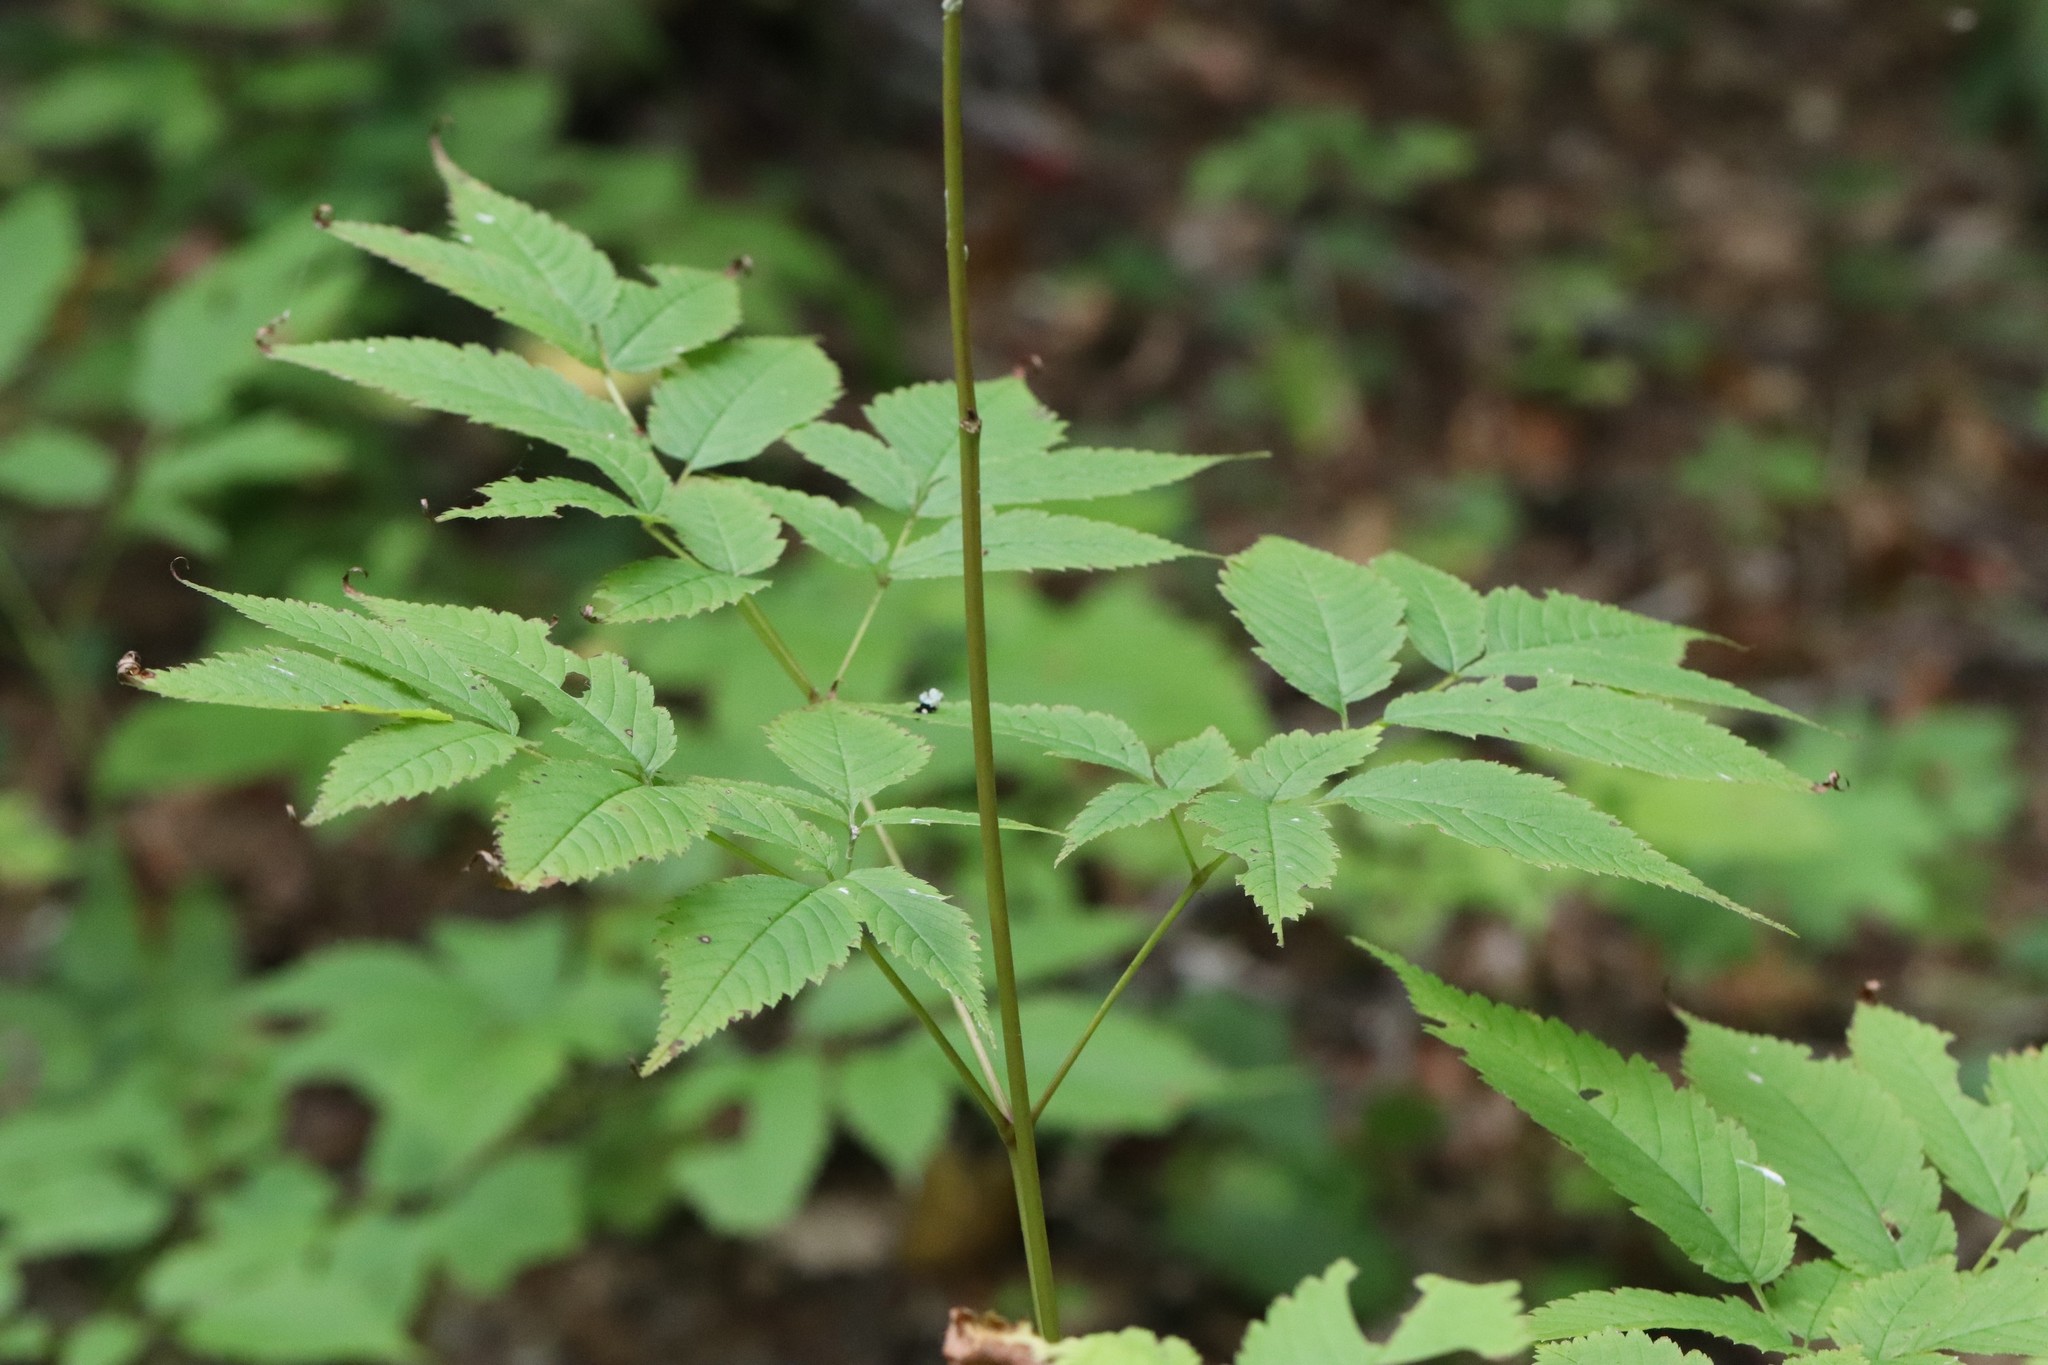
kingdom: Plantae
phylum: Tracheophyta
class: Magnoliopsida
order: Rosales
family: Rosaceae
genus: Aruncus
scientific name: Aruncus dioicus
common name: Buck's-beard
